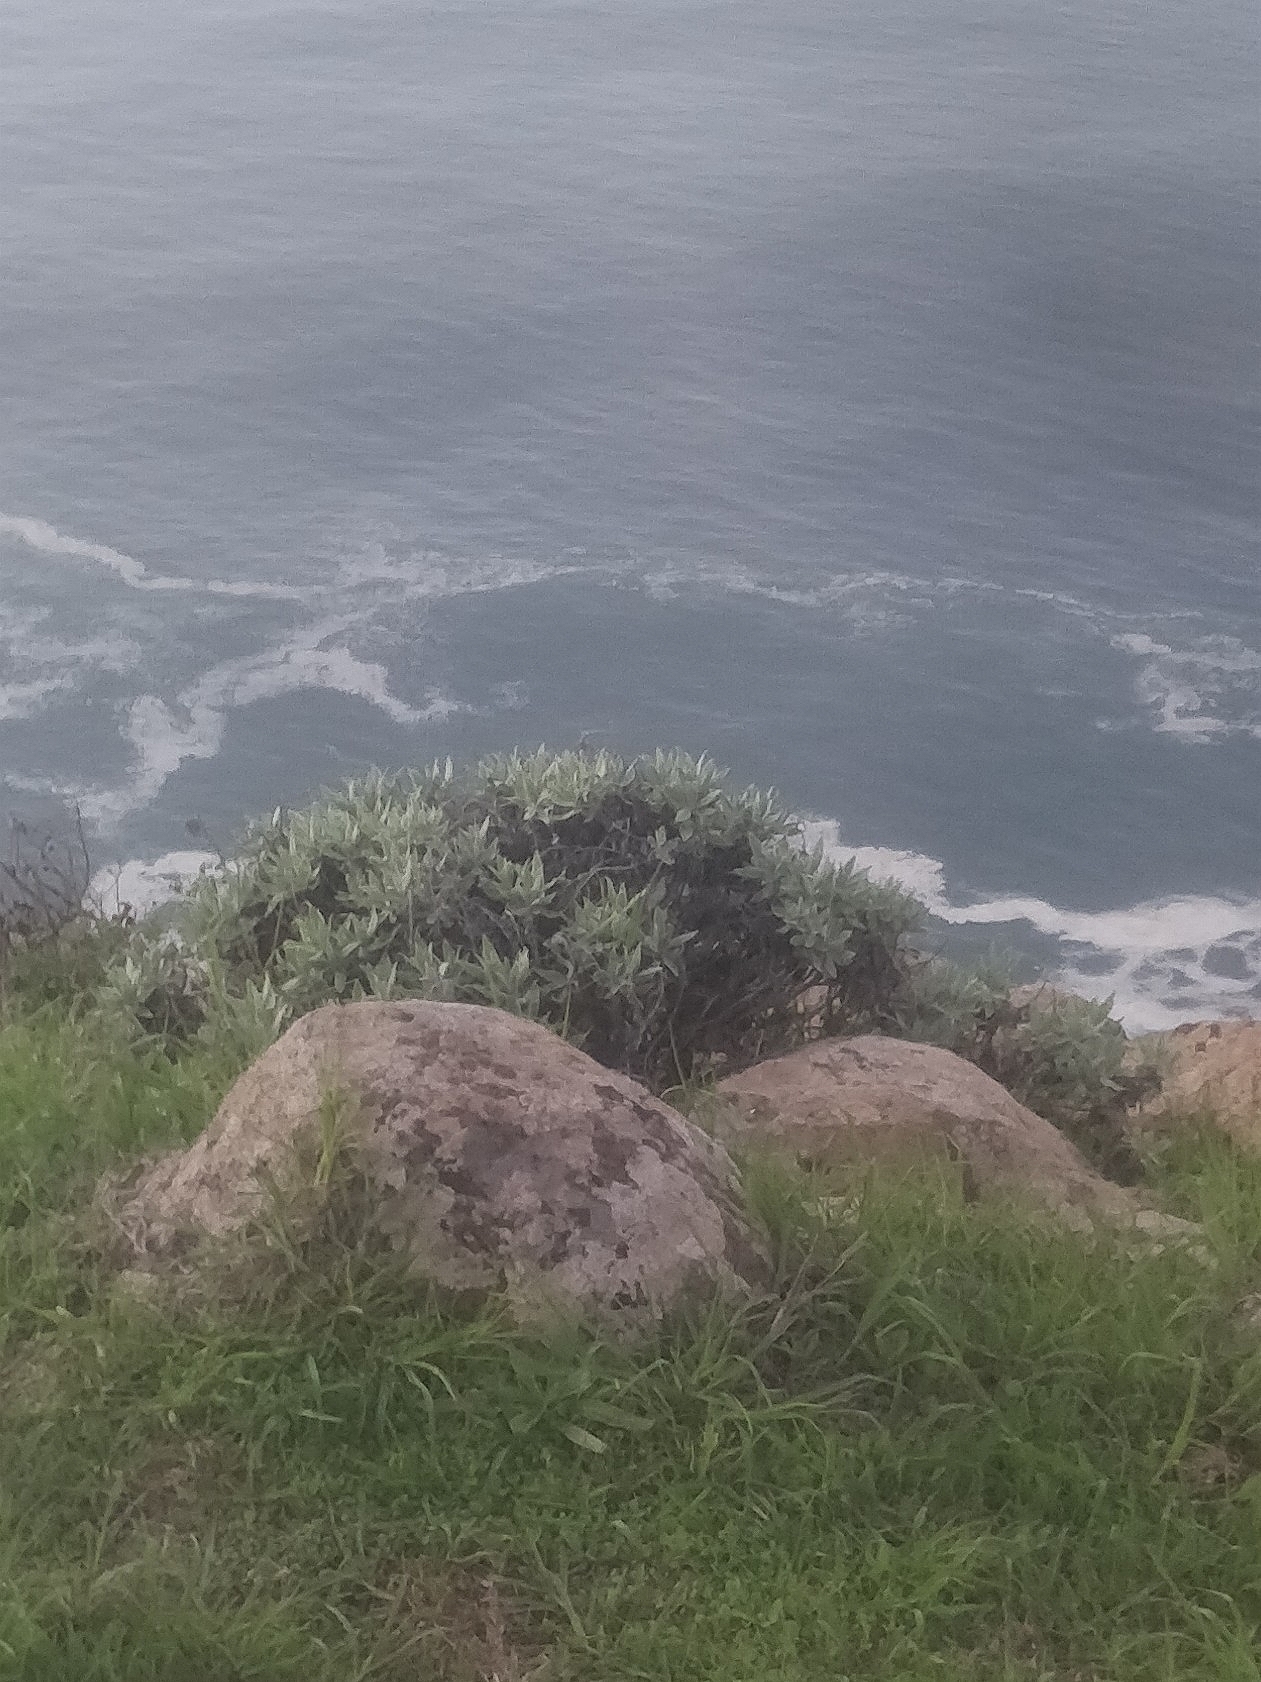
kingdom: Plantae
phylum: Tracheophyta
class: Magnoliopsida
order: Asterales
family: Asteraceae
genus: Helichrysum
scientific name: Helichrysum melaleucum
